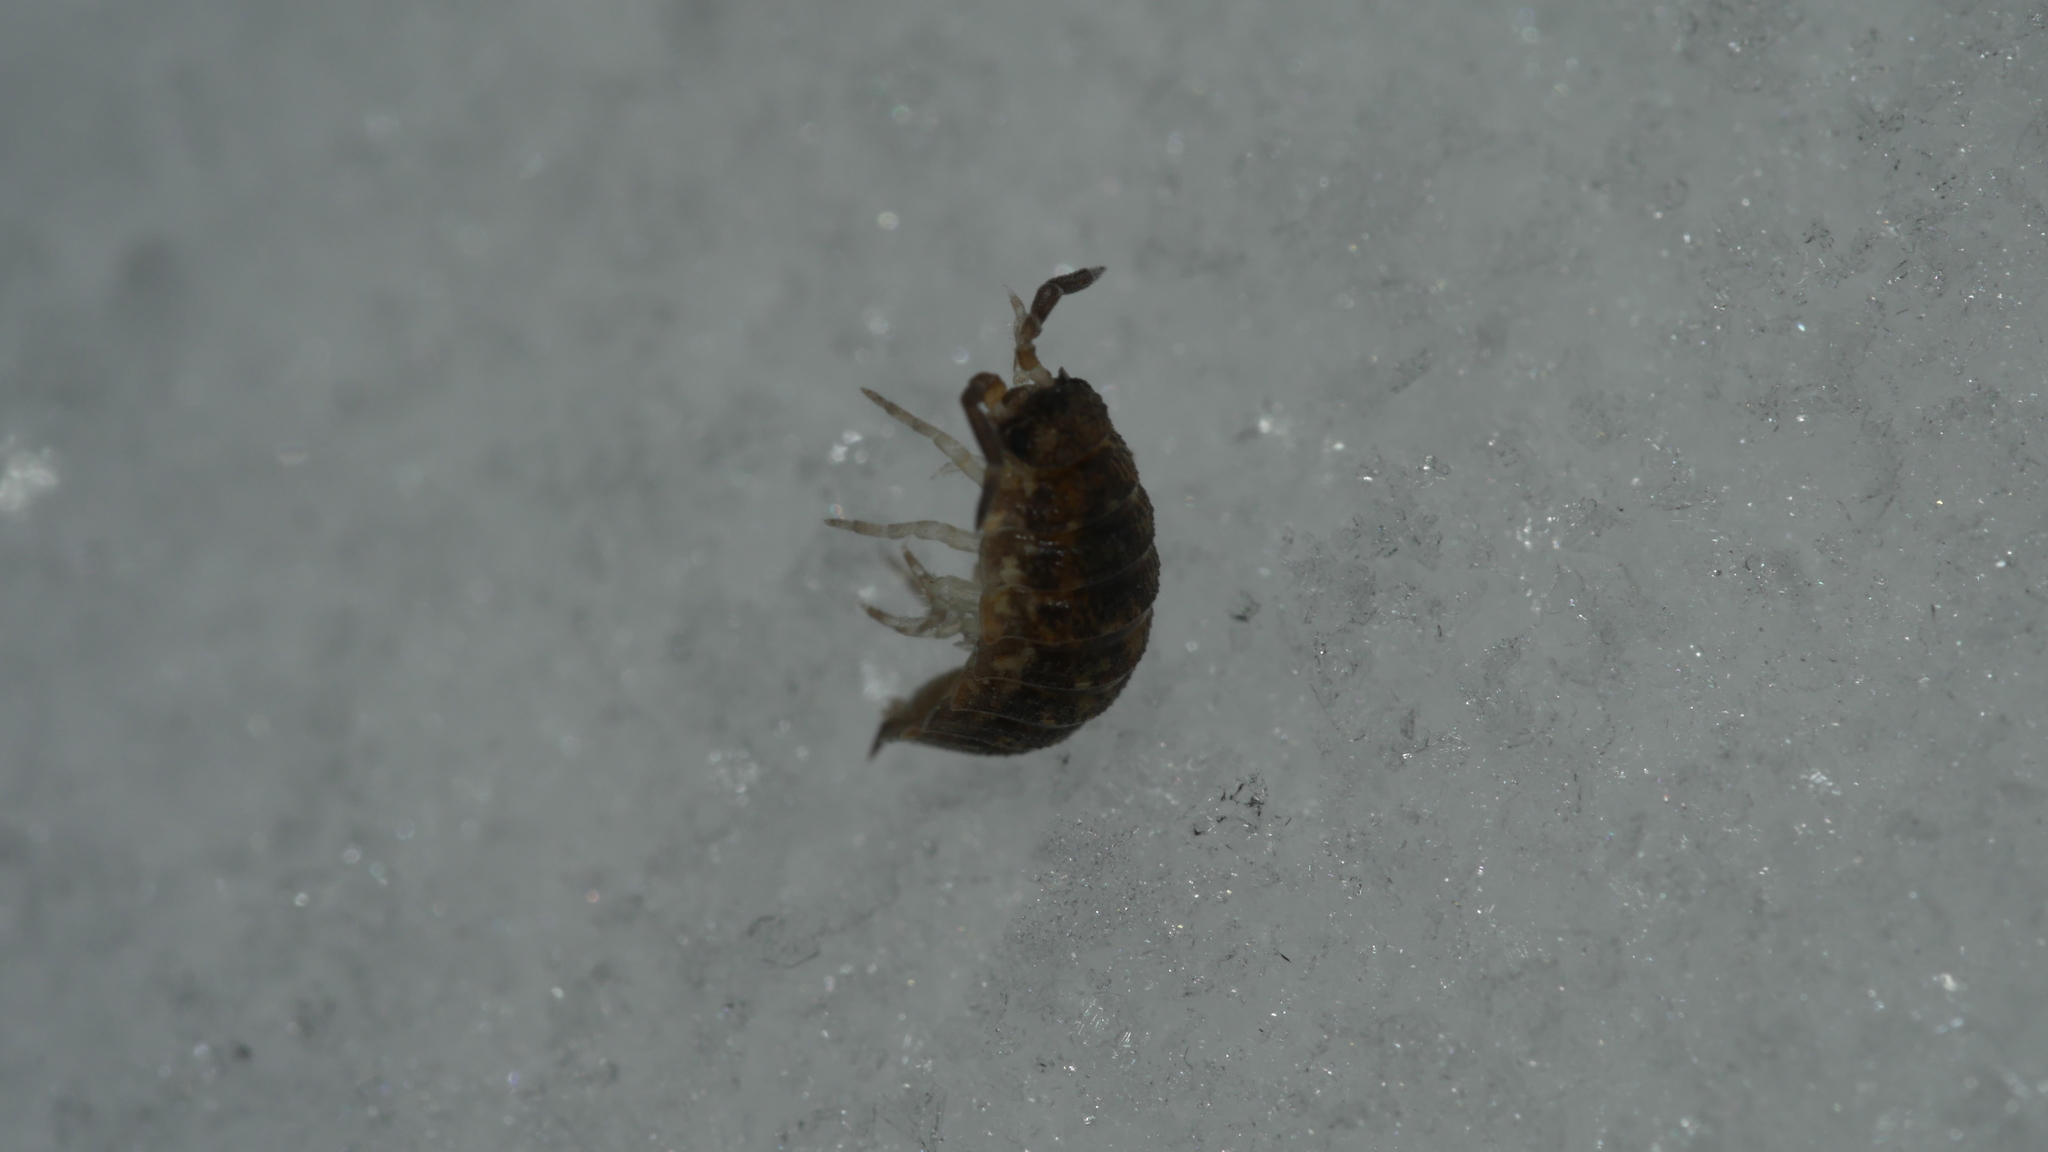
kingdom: Animalia
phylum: Arthropoda
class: Malacostraca
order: Isopoda
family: Porcellionidae
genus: Porcellio
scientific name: Porcellio scaber
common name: Common rough woodlouse
